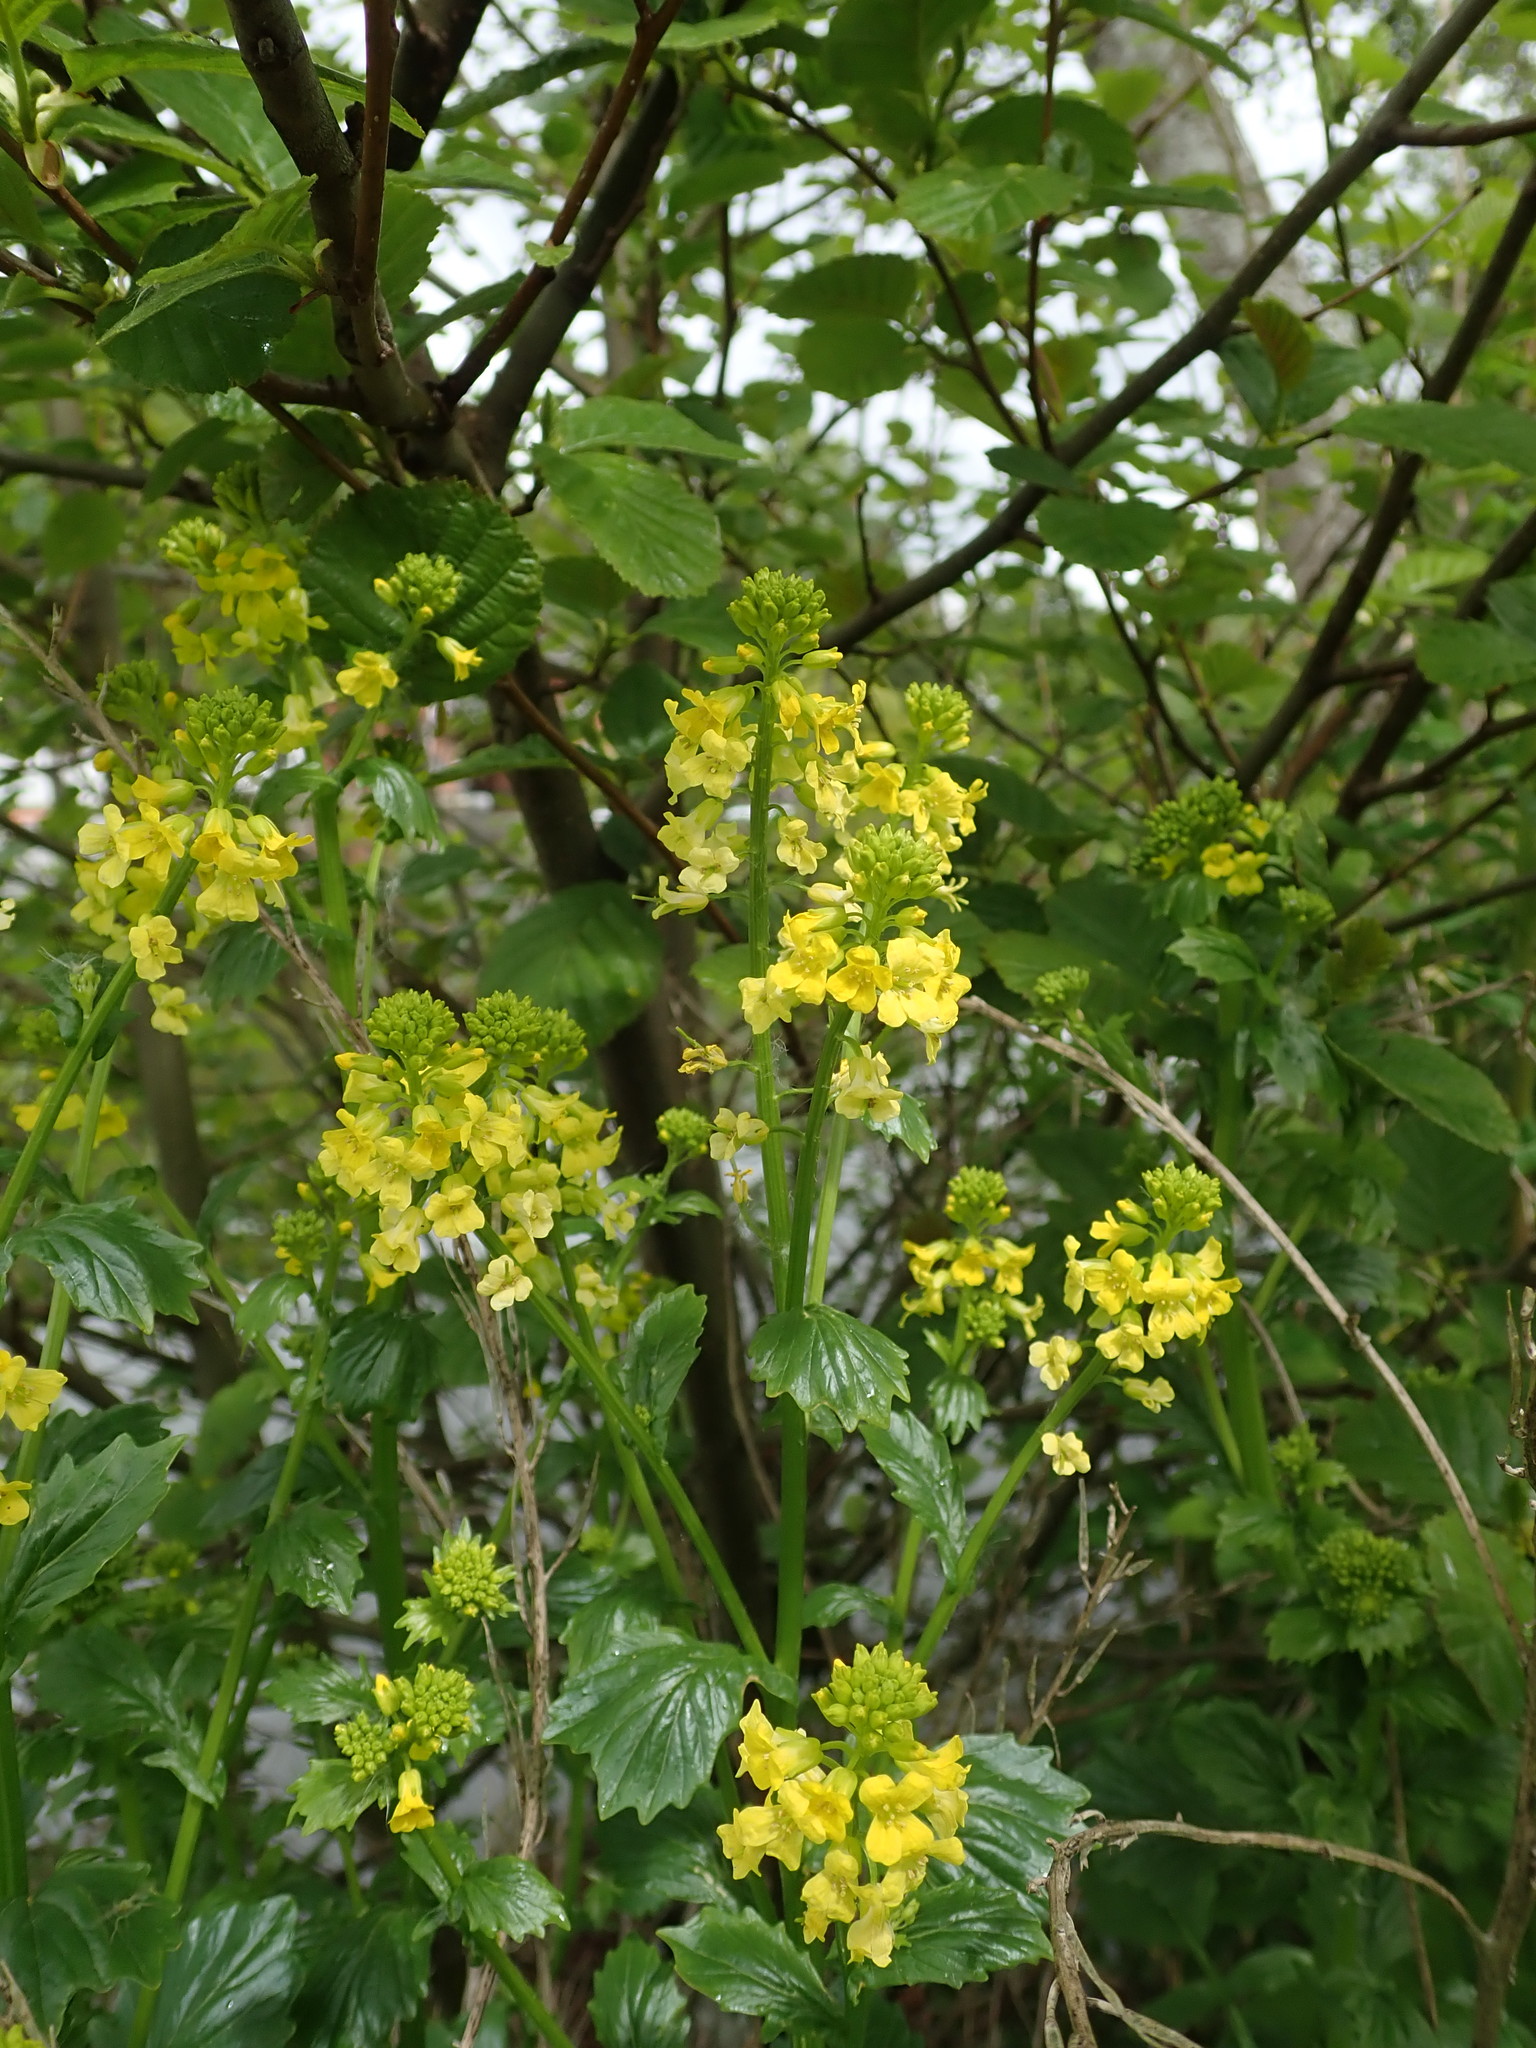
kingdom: Plantae
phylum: Tracheophyta
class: Magnoliopsida
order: Brassicales
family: Brassicaceae
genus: Barbarea
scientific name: Barbarea vulgaris
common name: Cressy-greens
